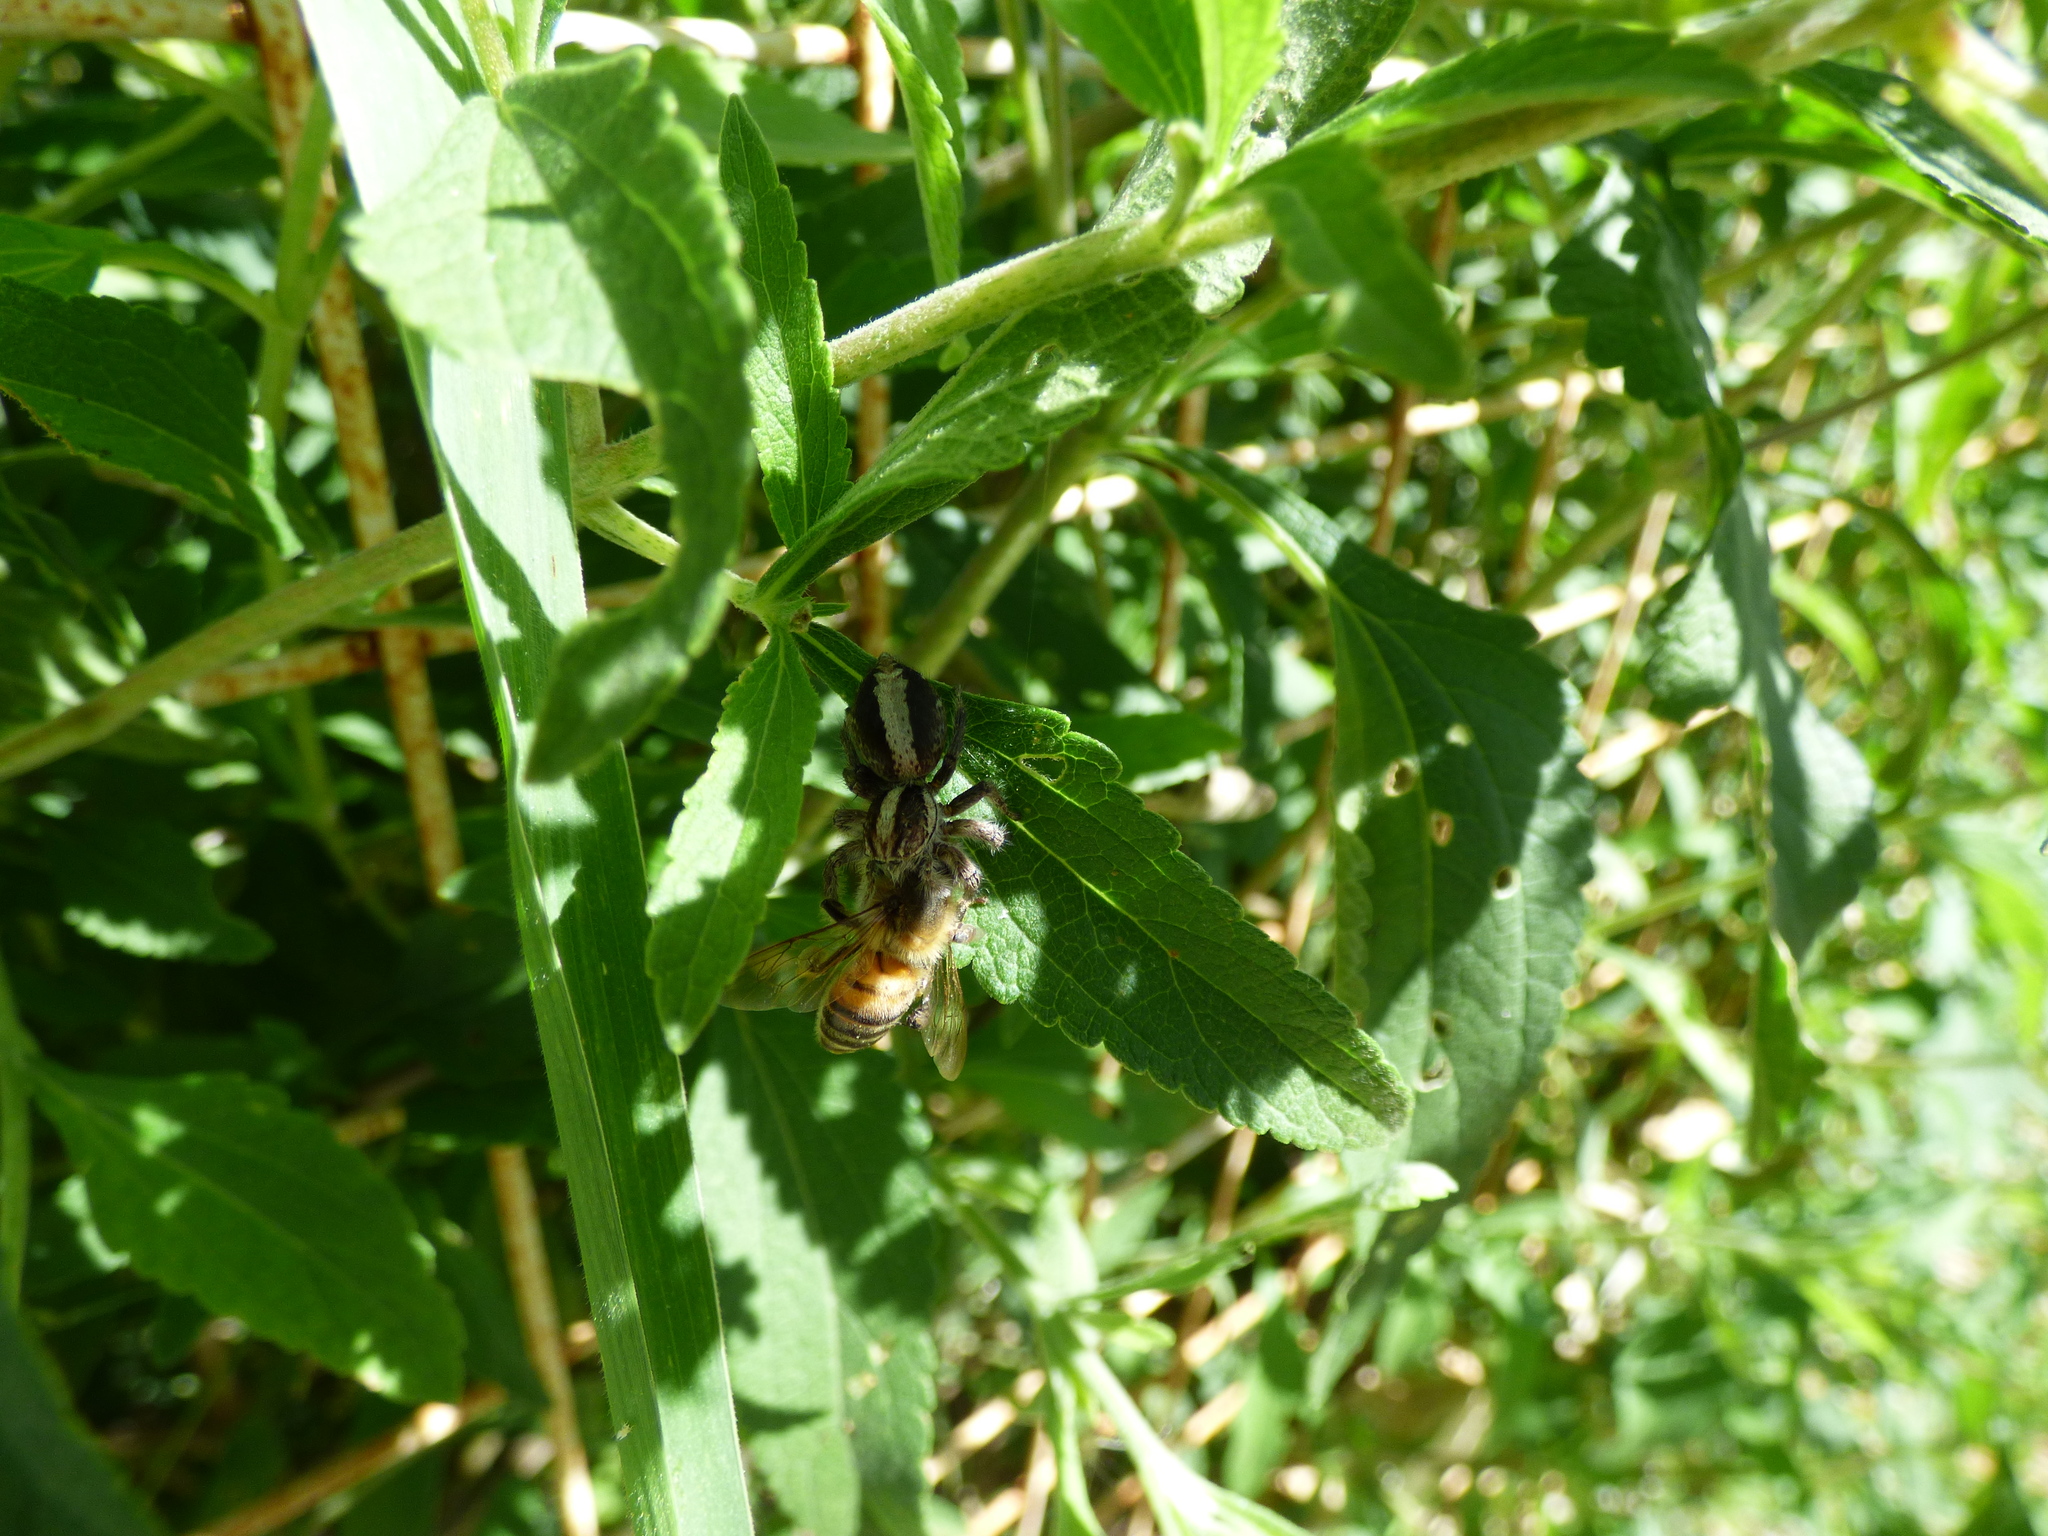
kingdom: Animalia
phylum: Arthropoda
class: Arachnida
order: Araneae
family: Salticidae
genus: Megafreya
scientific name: Megafreya sutrix
